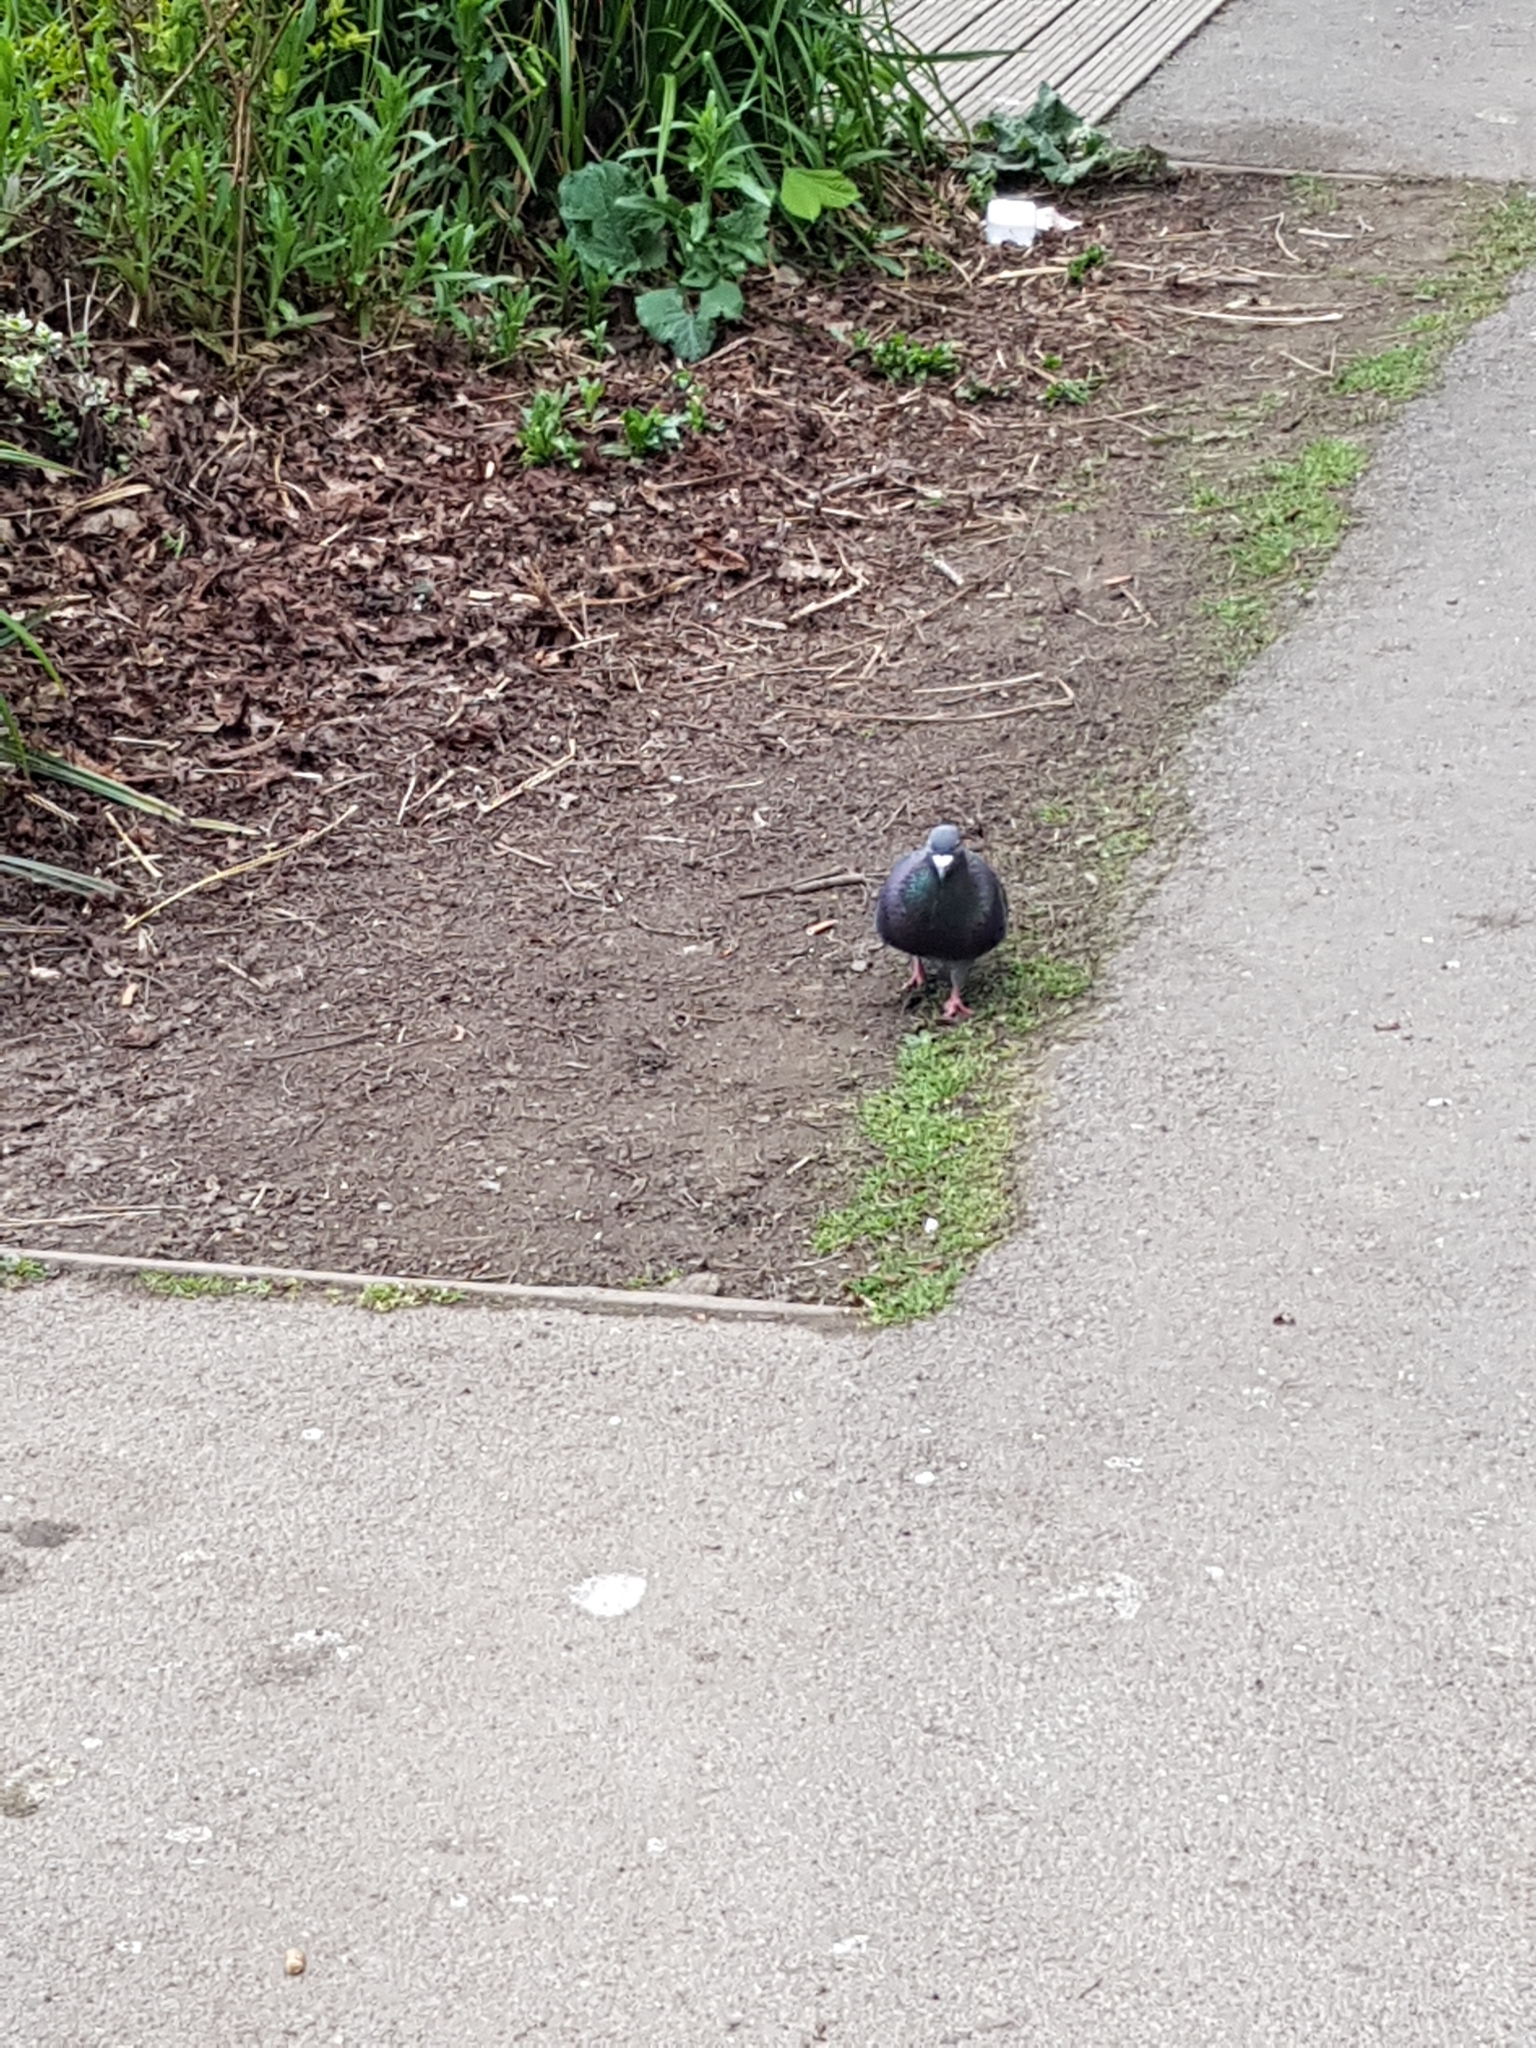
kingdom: Animalia
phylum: Chordata
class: Aves
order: Columbiformes
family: Columbidae
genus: Columba
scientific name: Columba livia
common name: Rock pigeon
